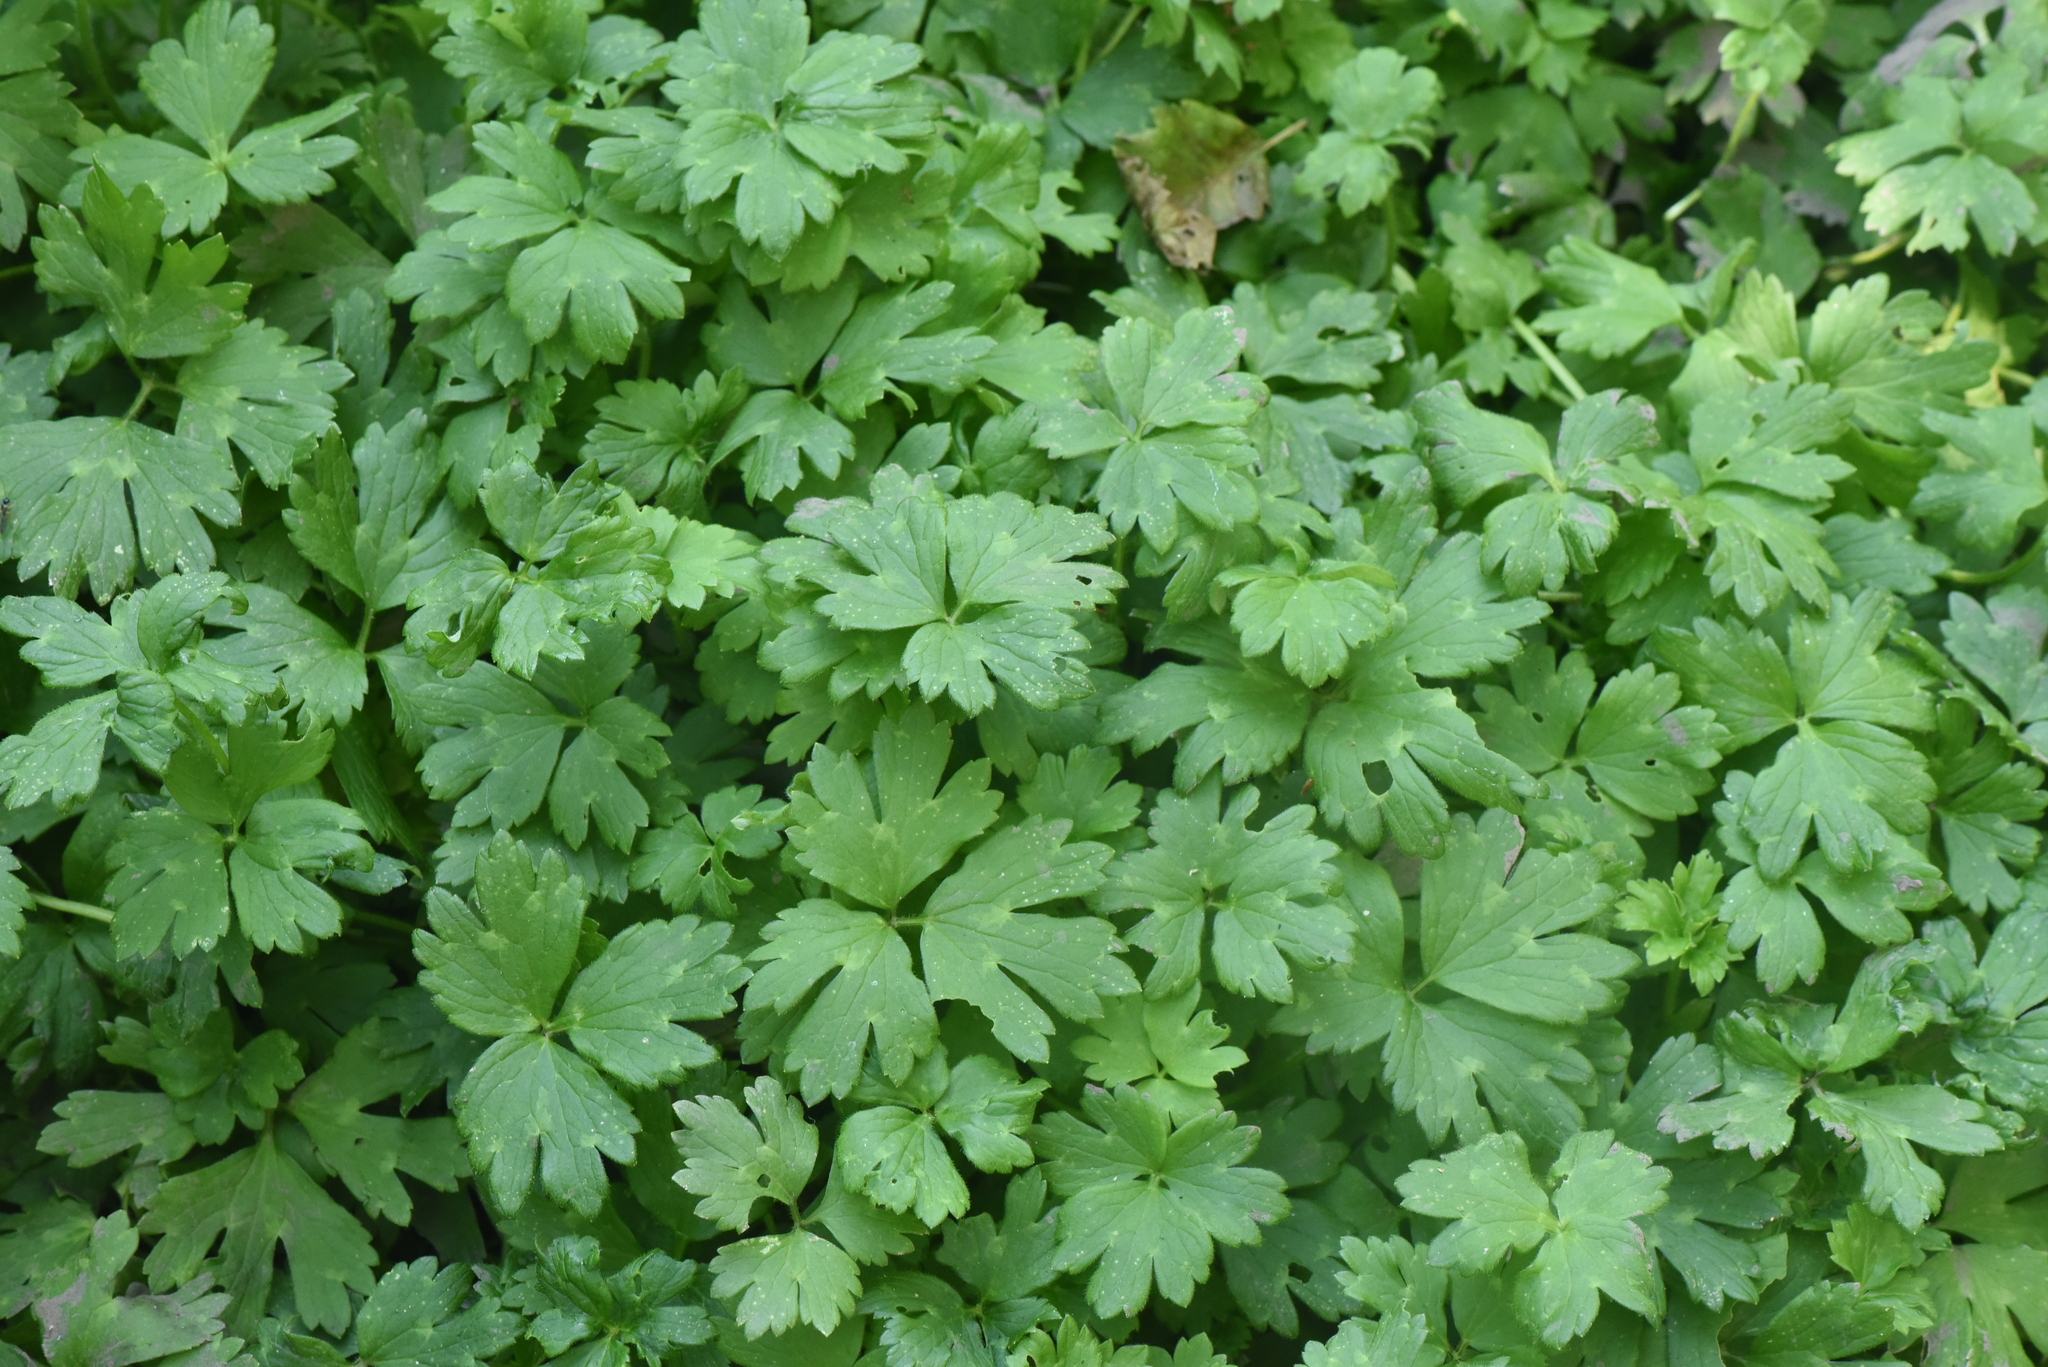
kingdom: Plantae
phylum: Tracheophyta
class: Magnoliopsida
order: Ranunculales
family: Ranunculaceae
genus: Ranunculus
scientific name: Ranunculus repens
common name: Creeping buttercup
